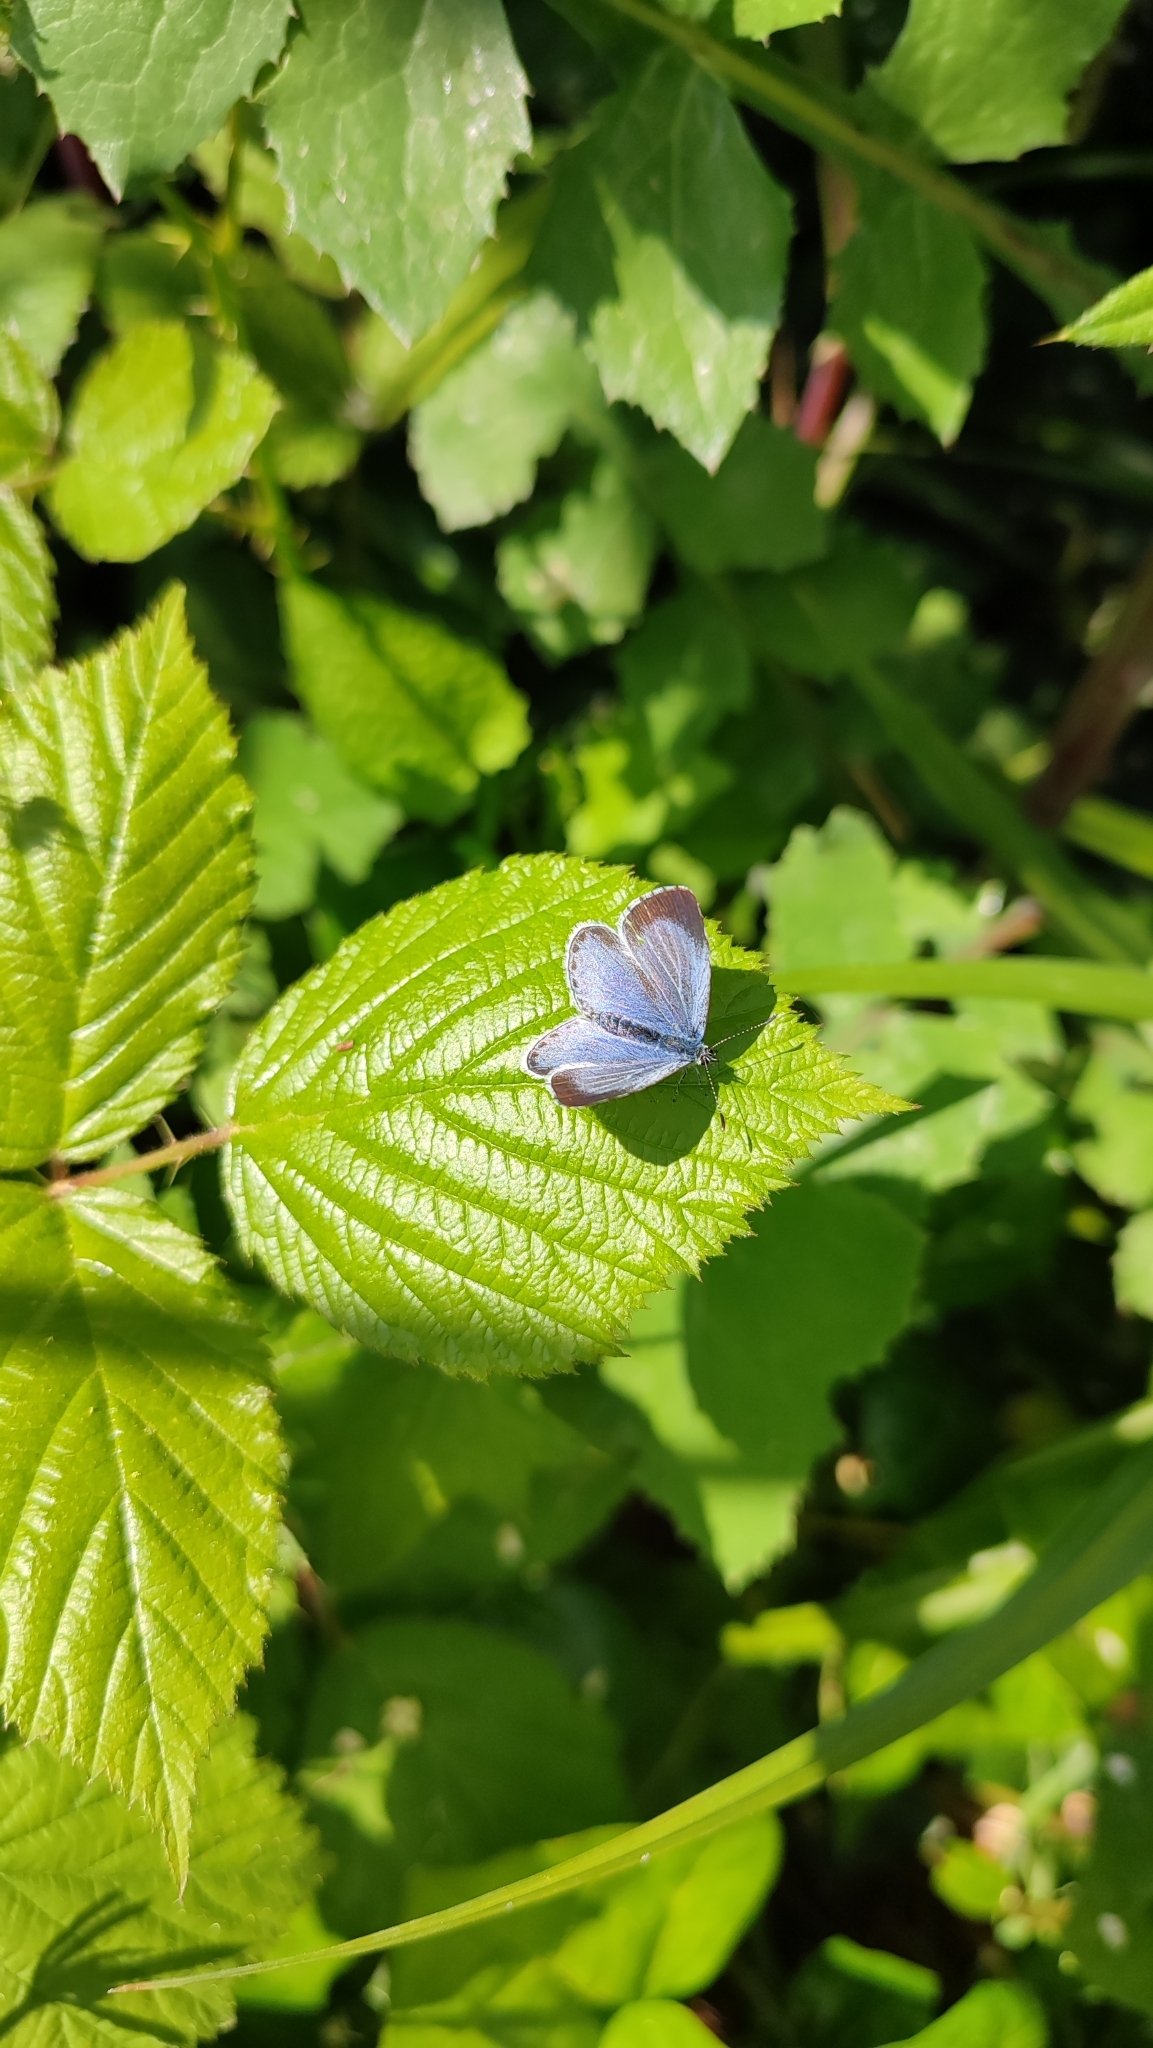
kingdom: Animalia
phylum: Arthropoda
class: Insecta
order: Lepidoptera
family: Lycaenidae
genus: Celastrina
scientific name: Celastrina argiolus
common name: Holly blue
